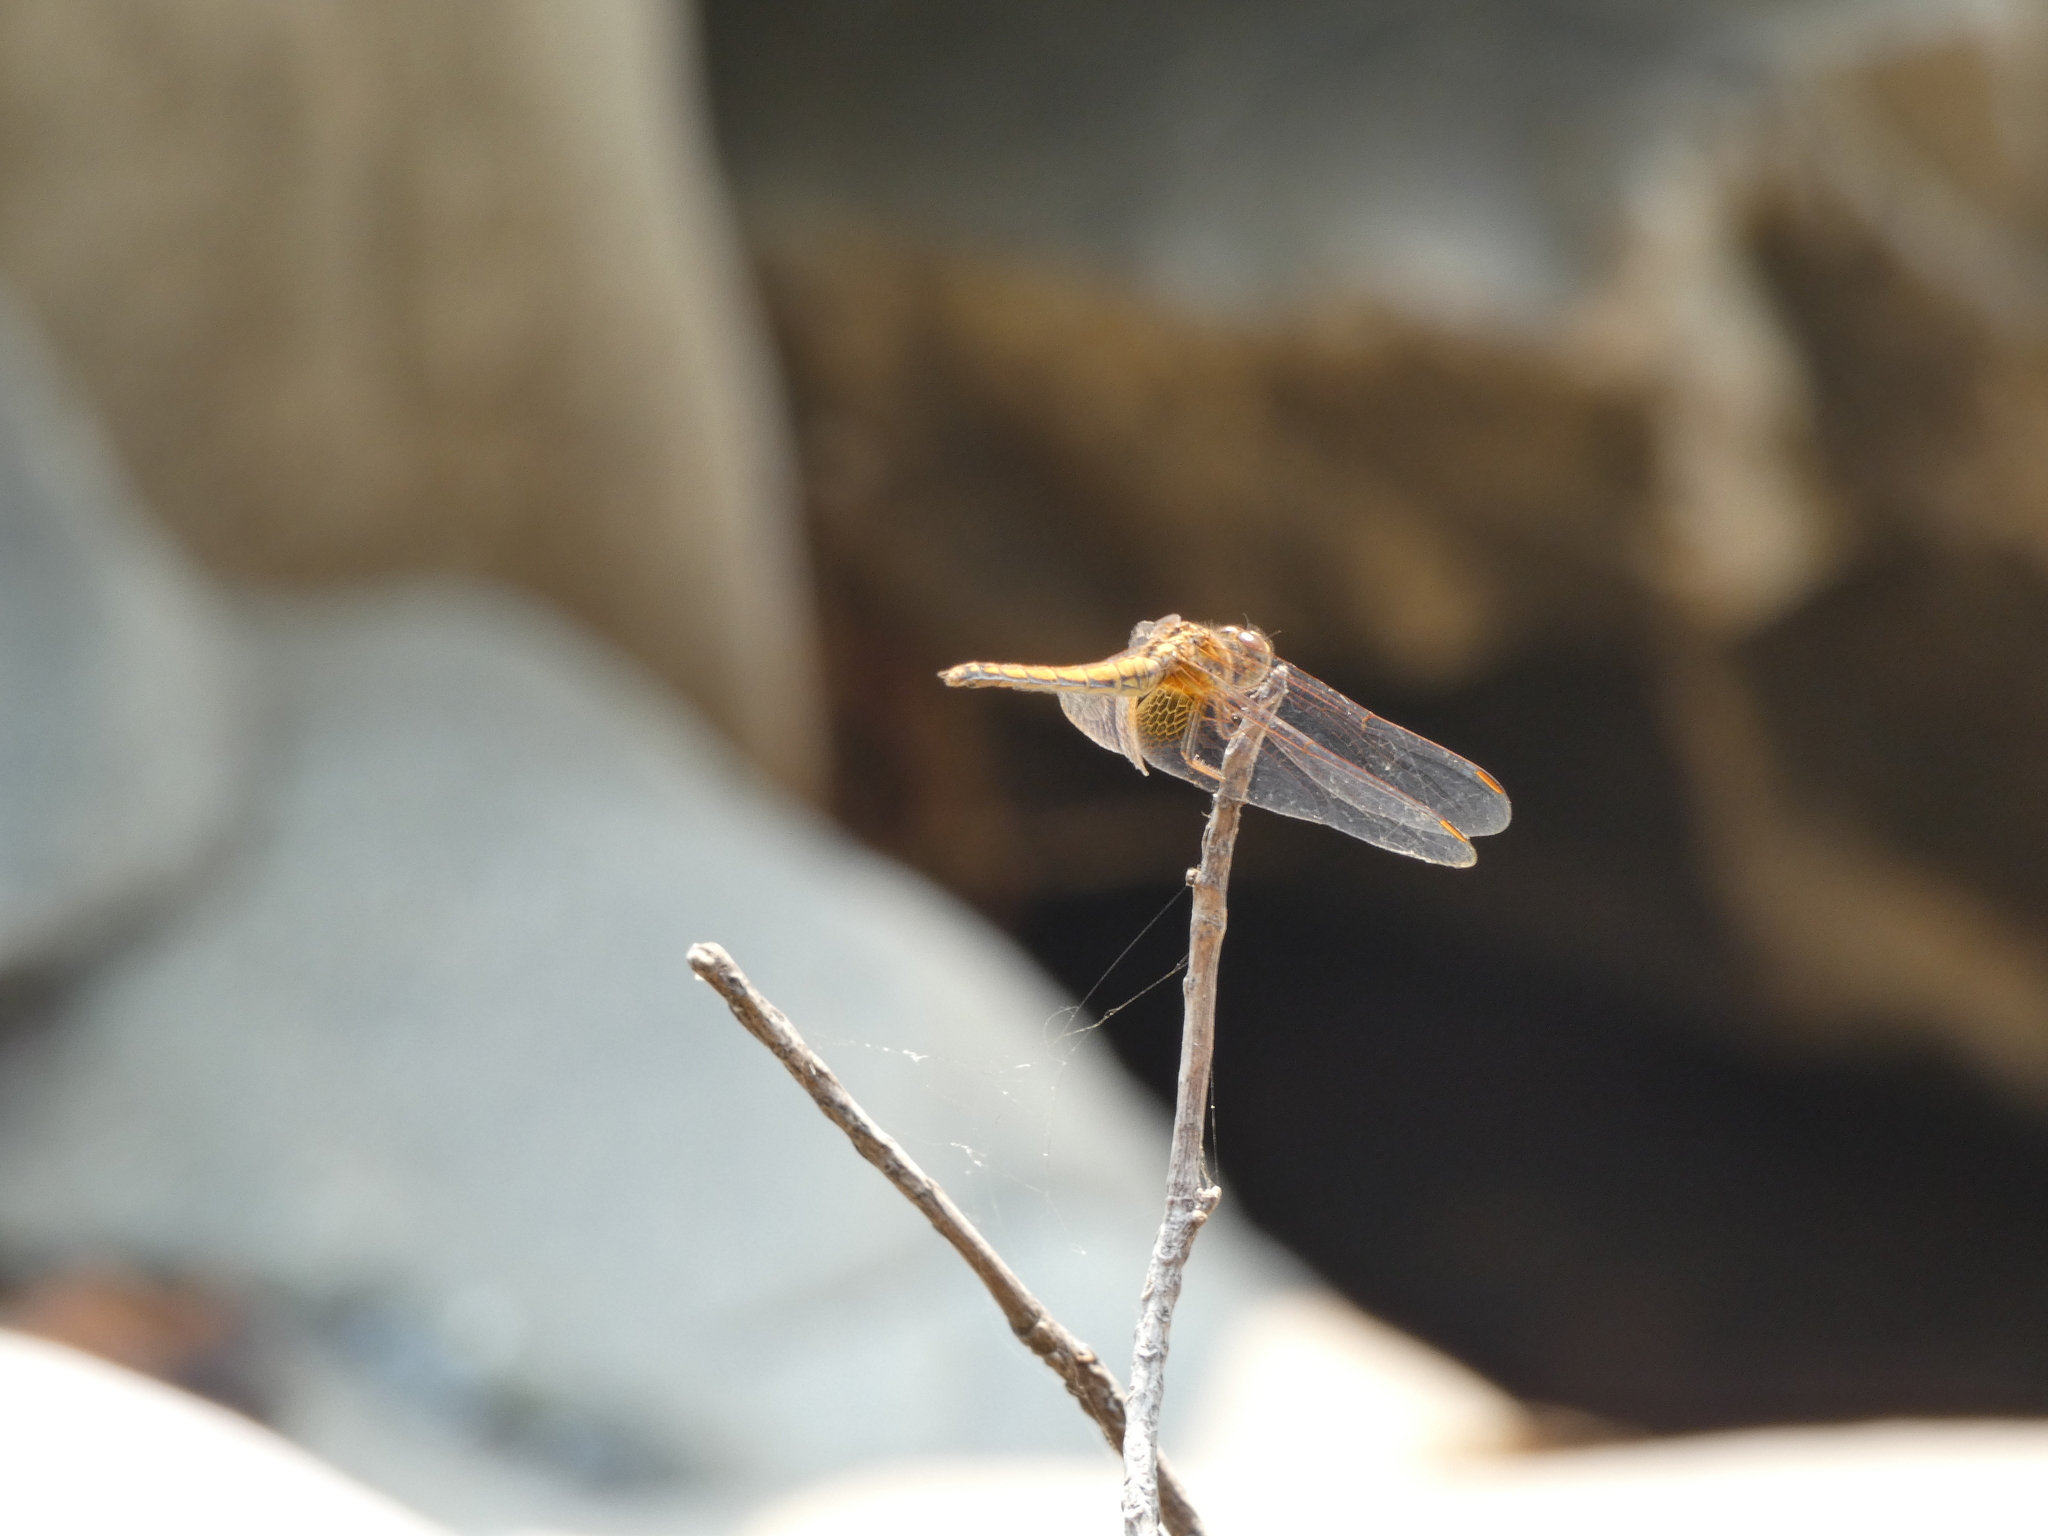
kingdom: Animalia
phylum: Arthropoda
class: Insecta
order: Odonata
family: Libellulidae
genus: Trithemis
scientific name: Trithemis aurora
